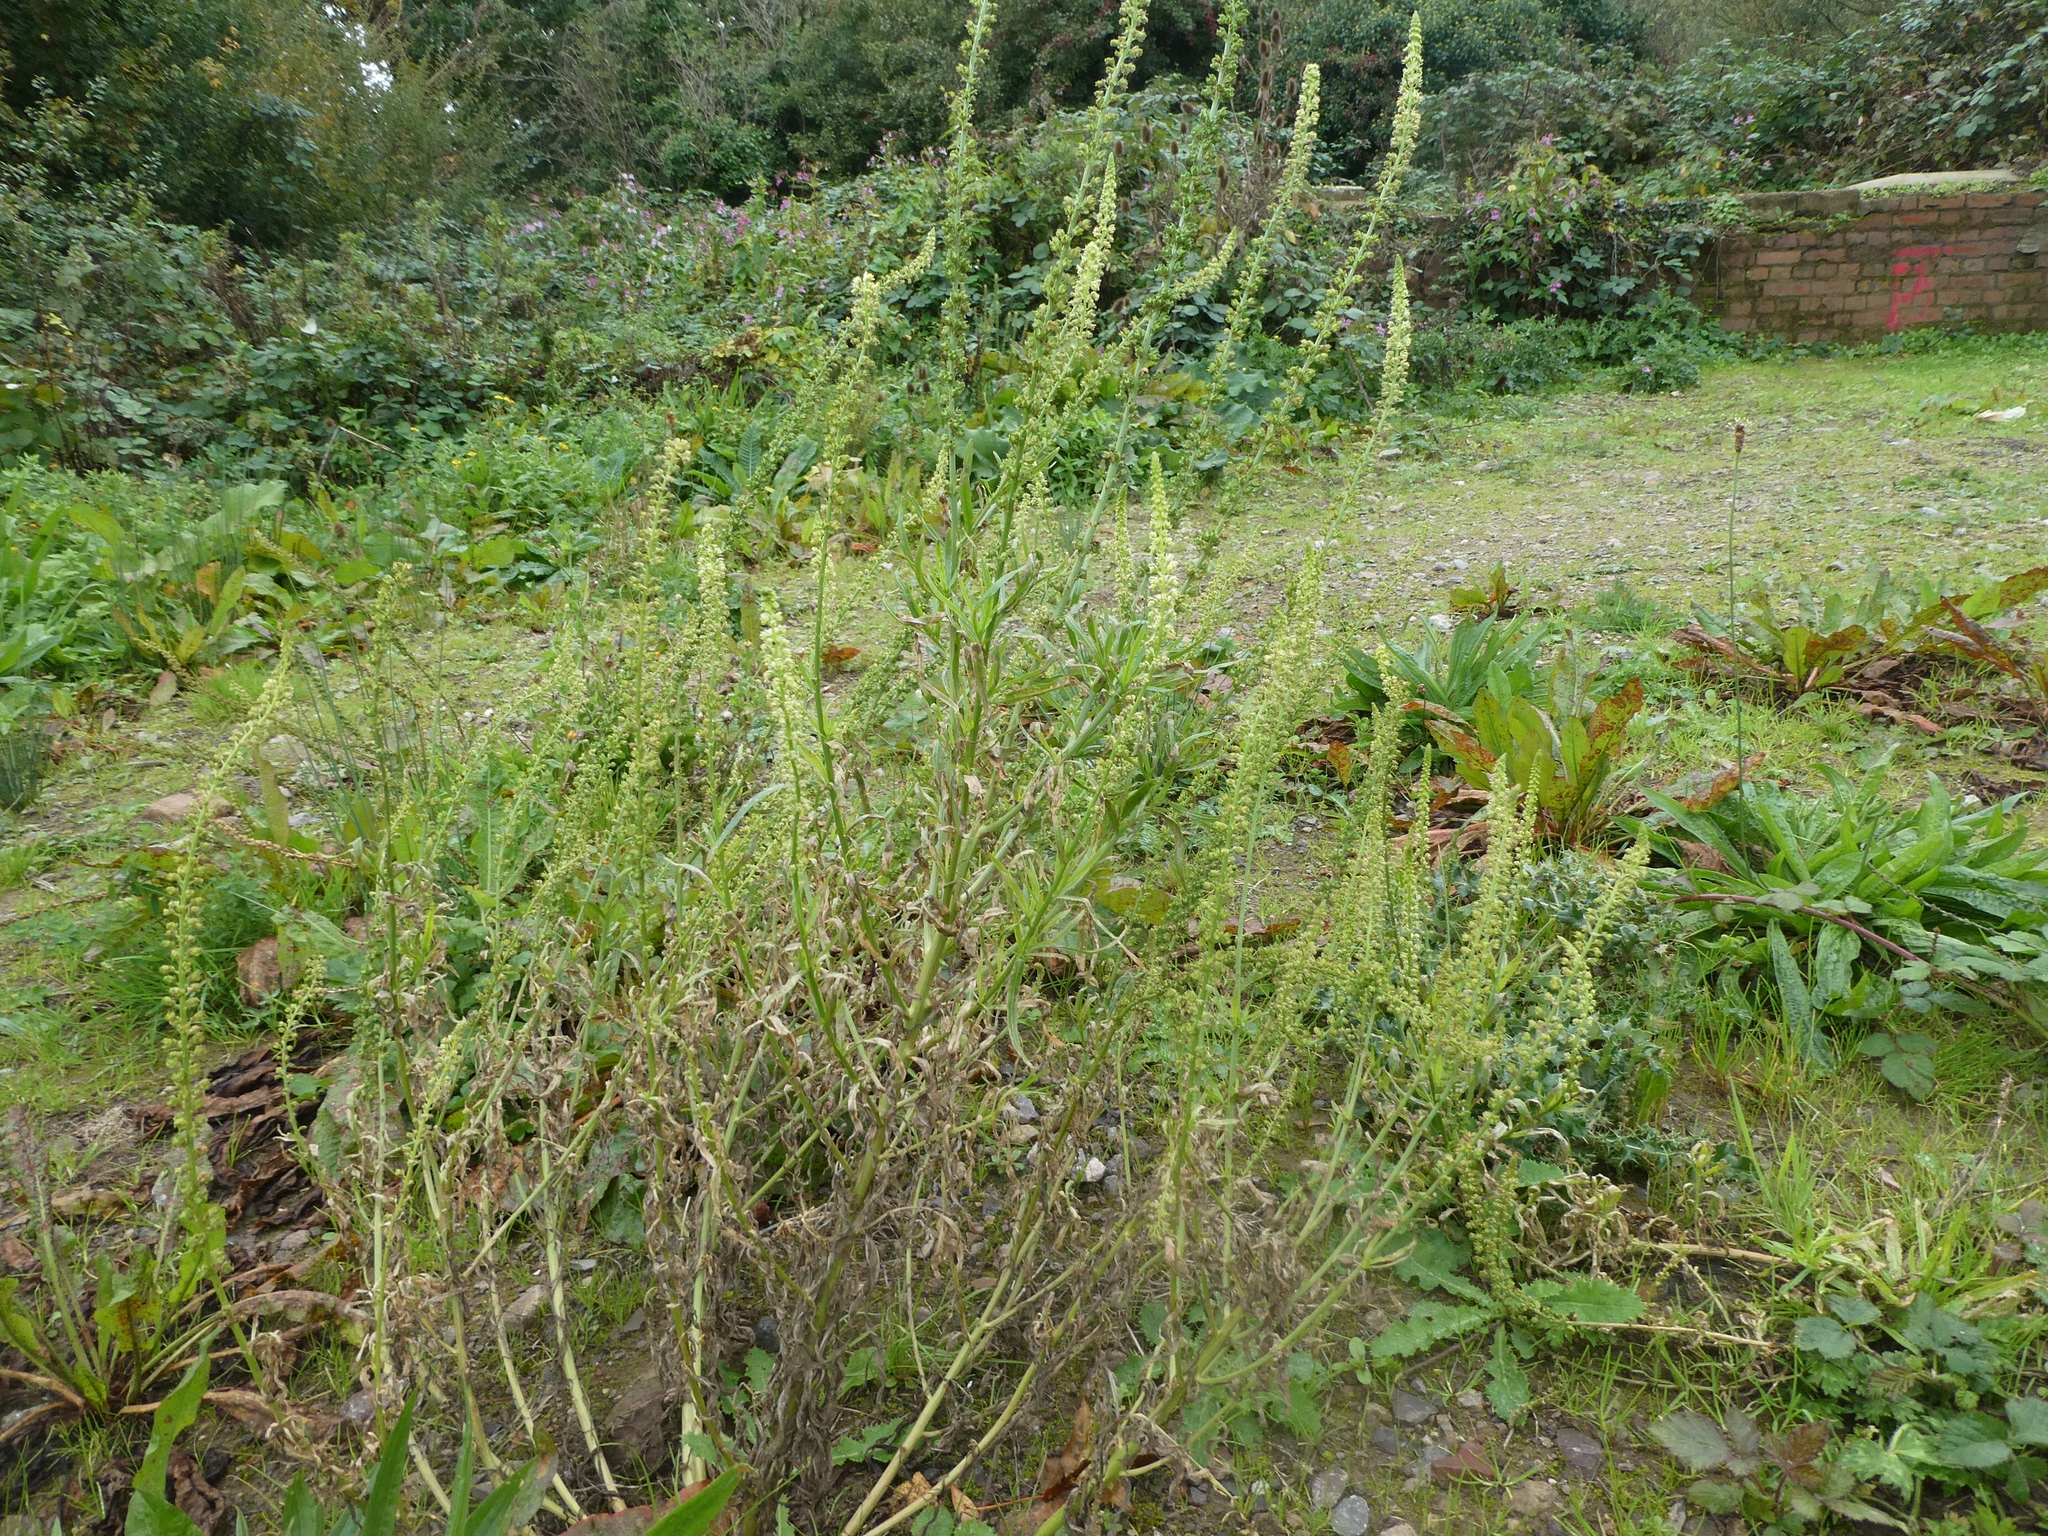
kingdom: Plantae
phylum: Tracheophyta
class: Magnoliopsida
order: Brassicales
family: Resedaceae
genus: Reseda
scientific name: Reseda luteola
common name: Weld
